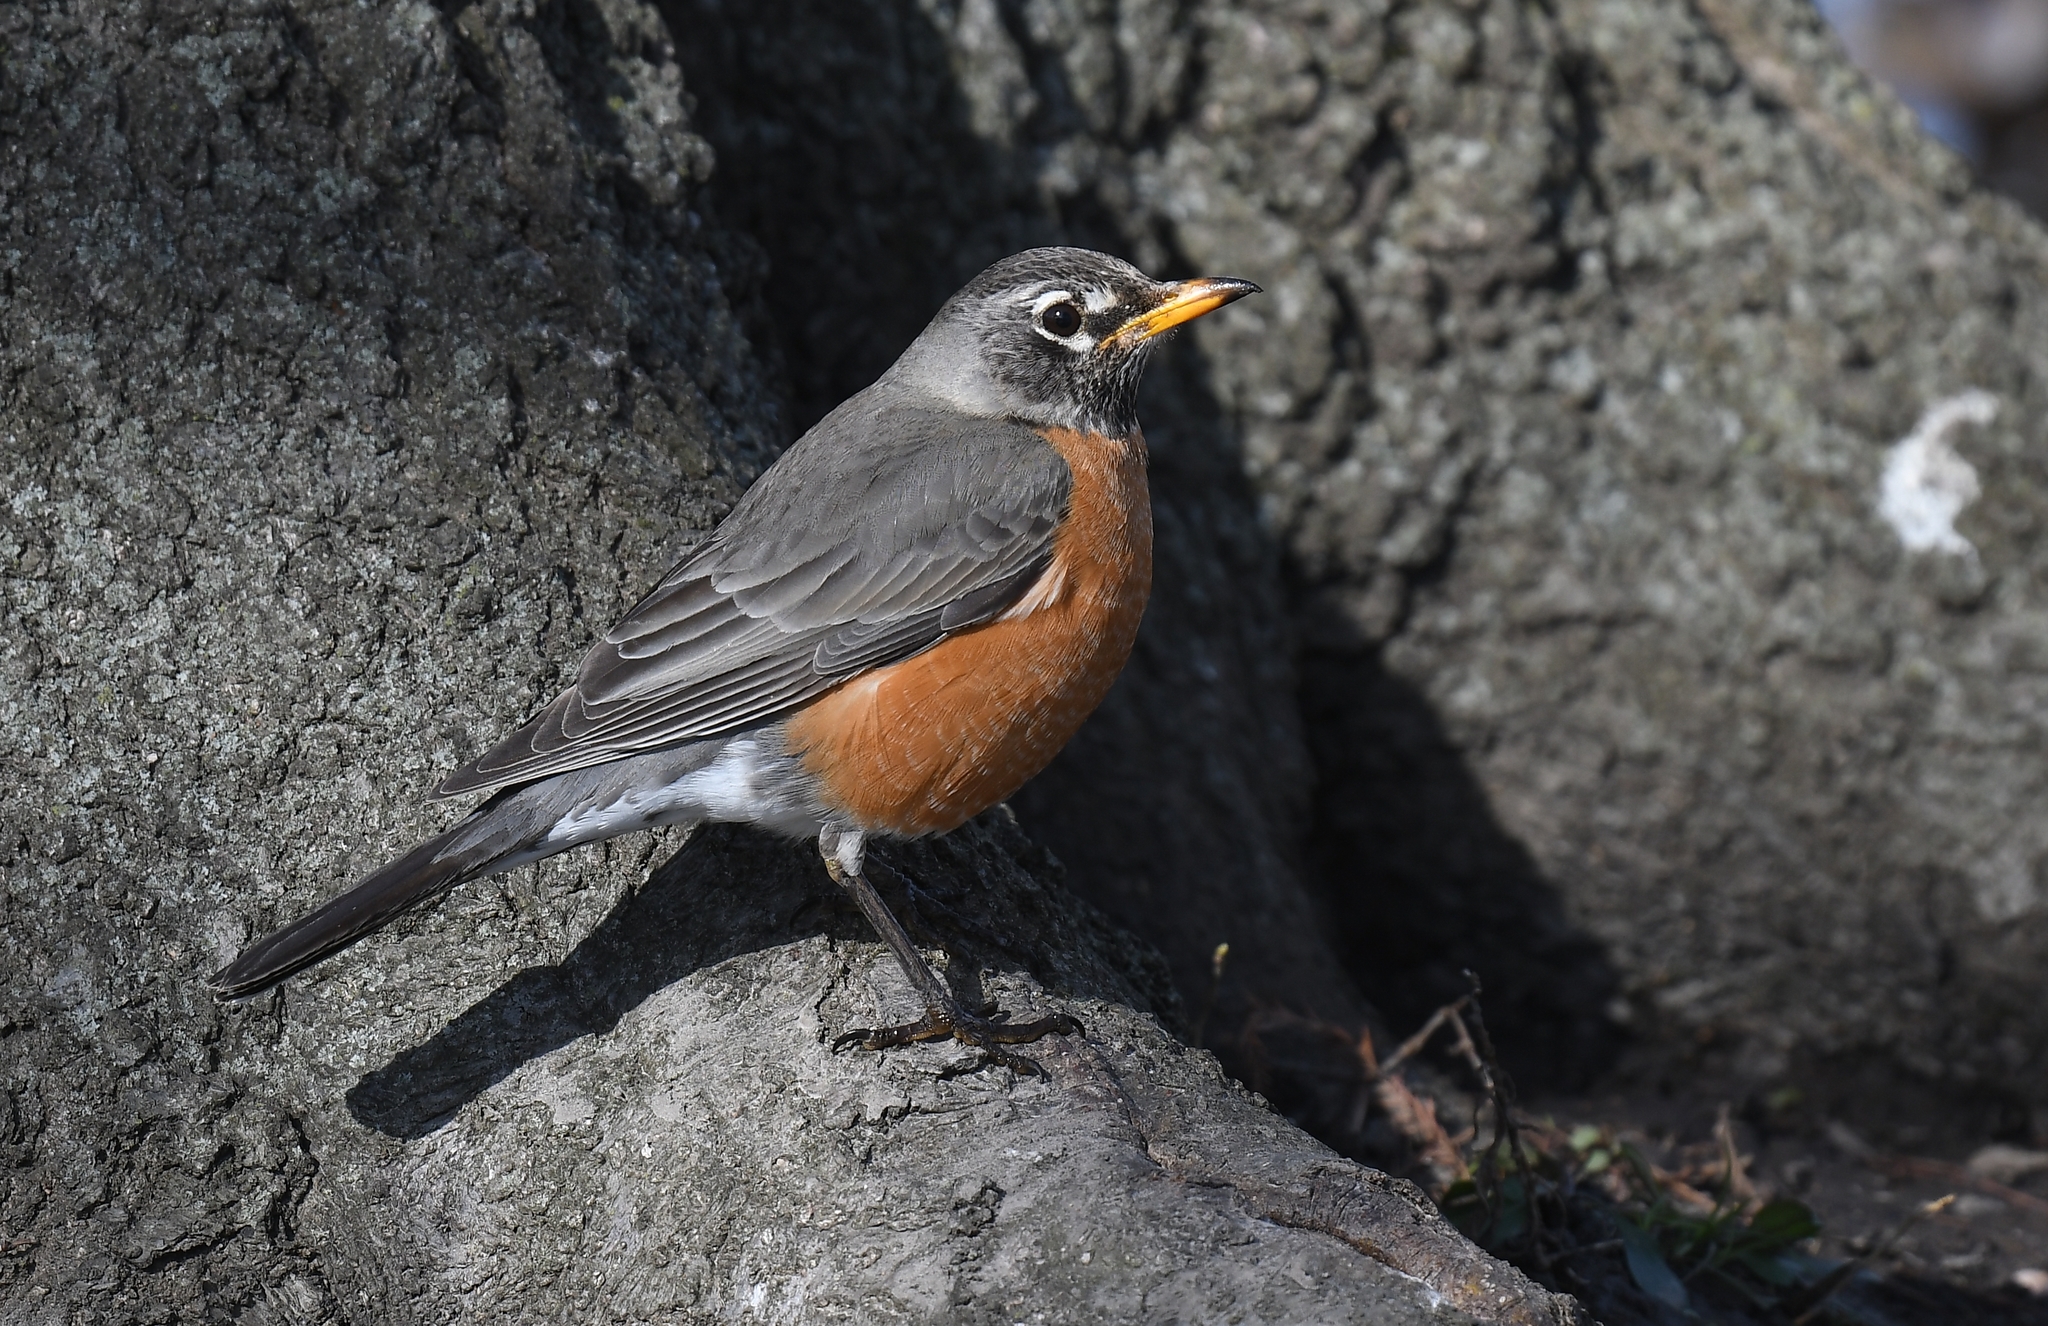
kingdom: Animalia
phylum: Chordata
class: Aves
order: Passeriformes
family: Turdidae
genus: Turdus
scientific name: Turdus migratorius
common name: American robin
